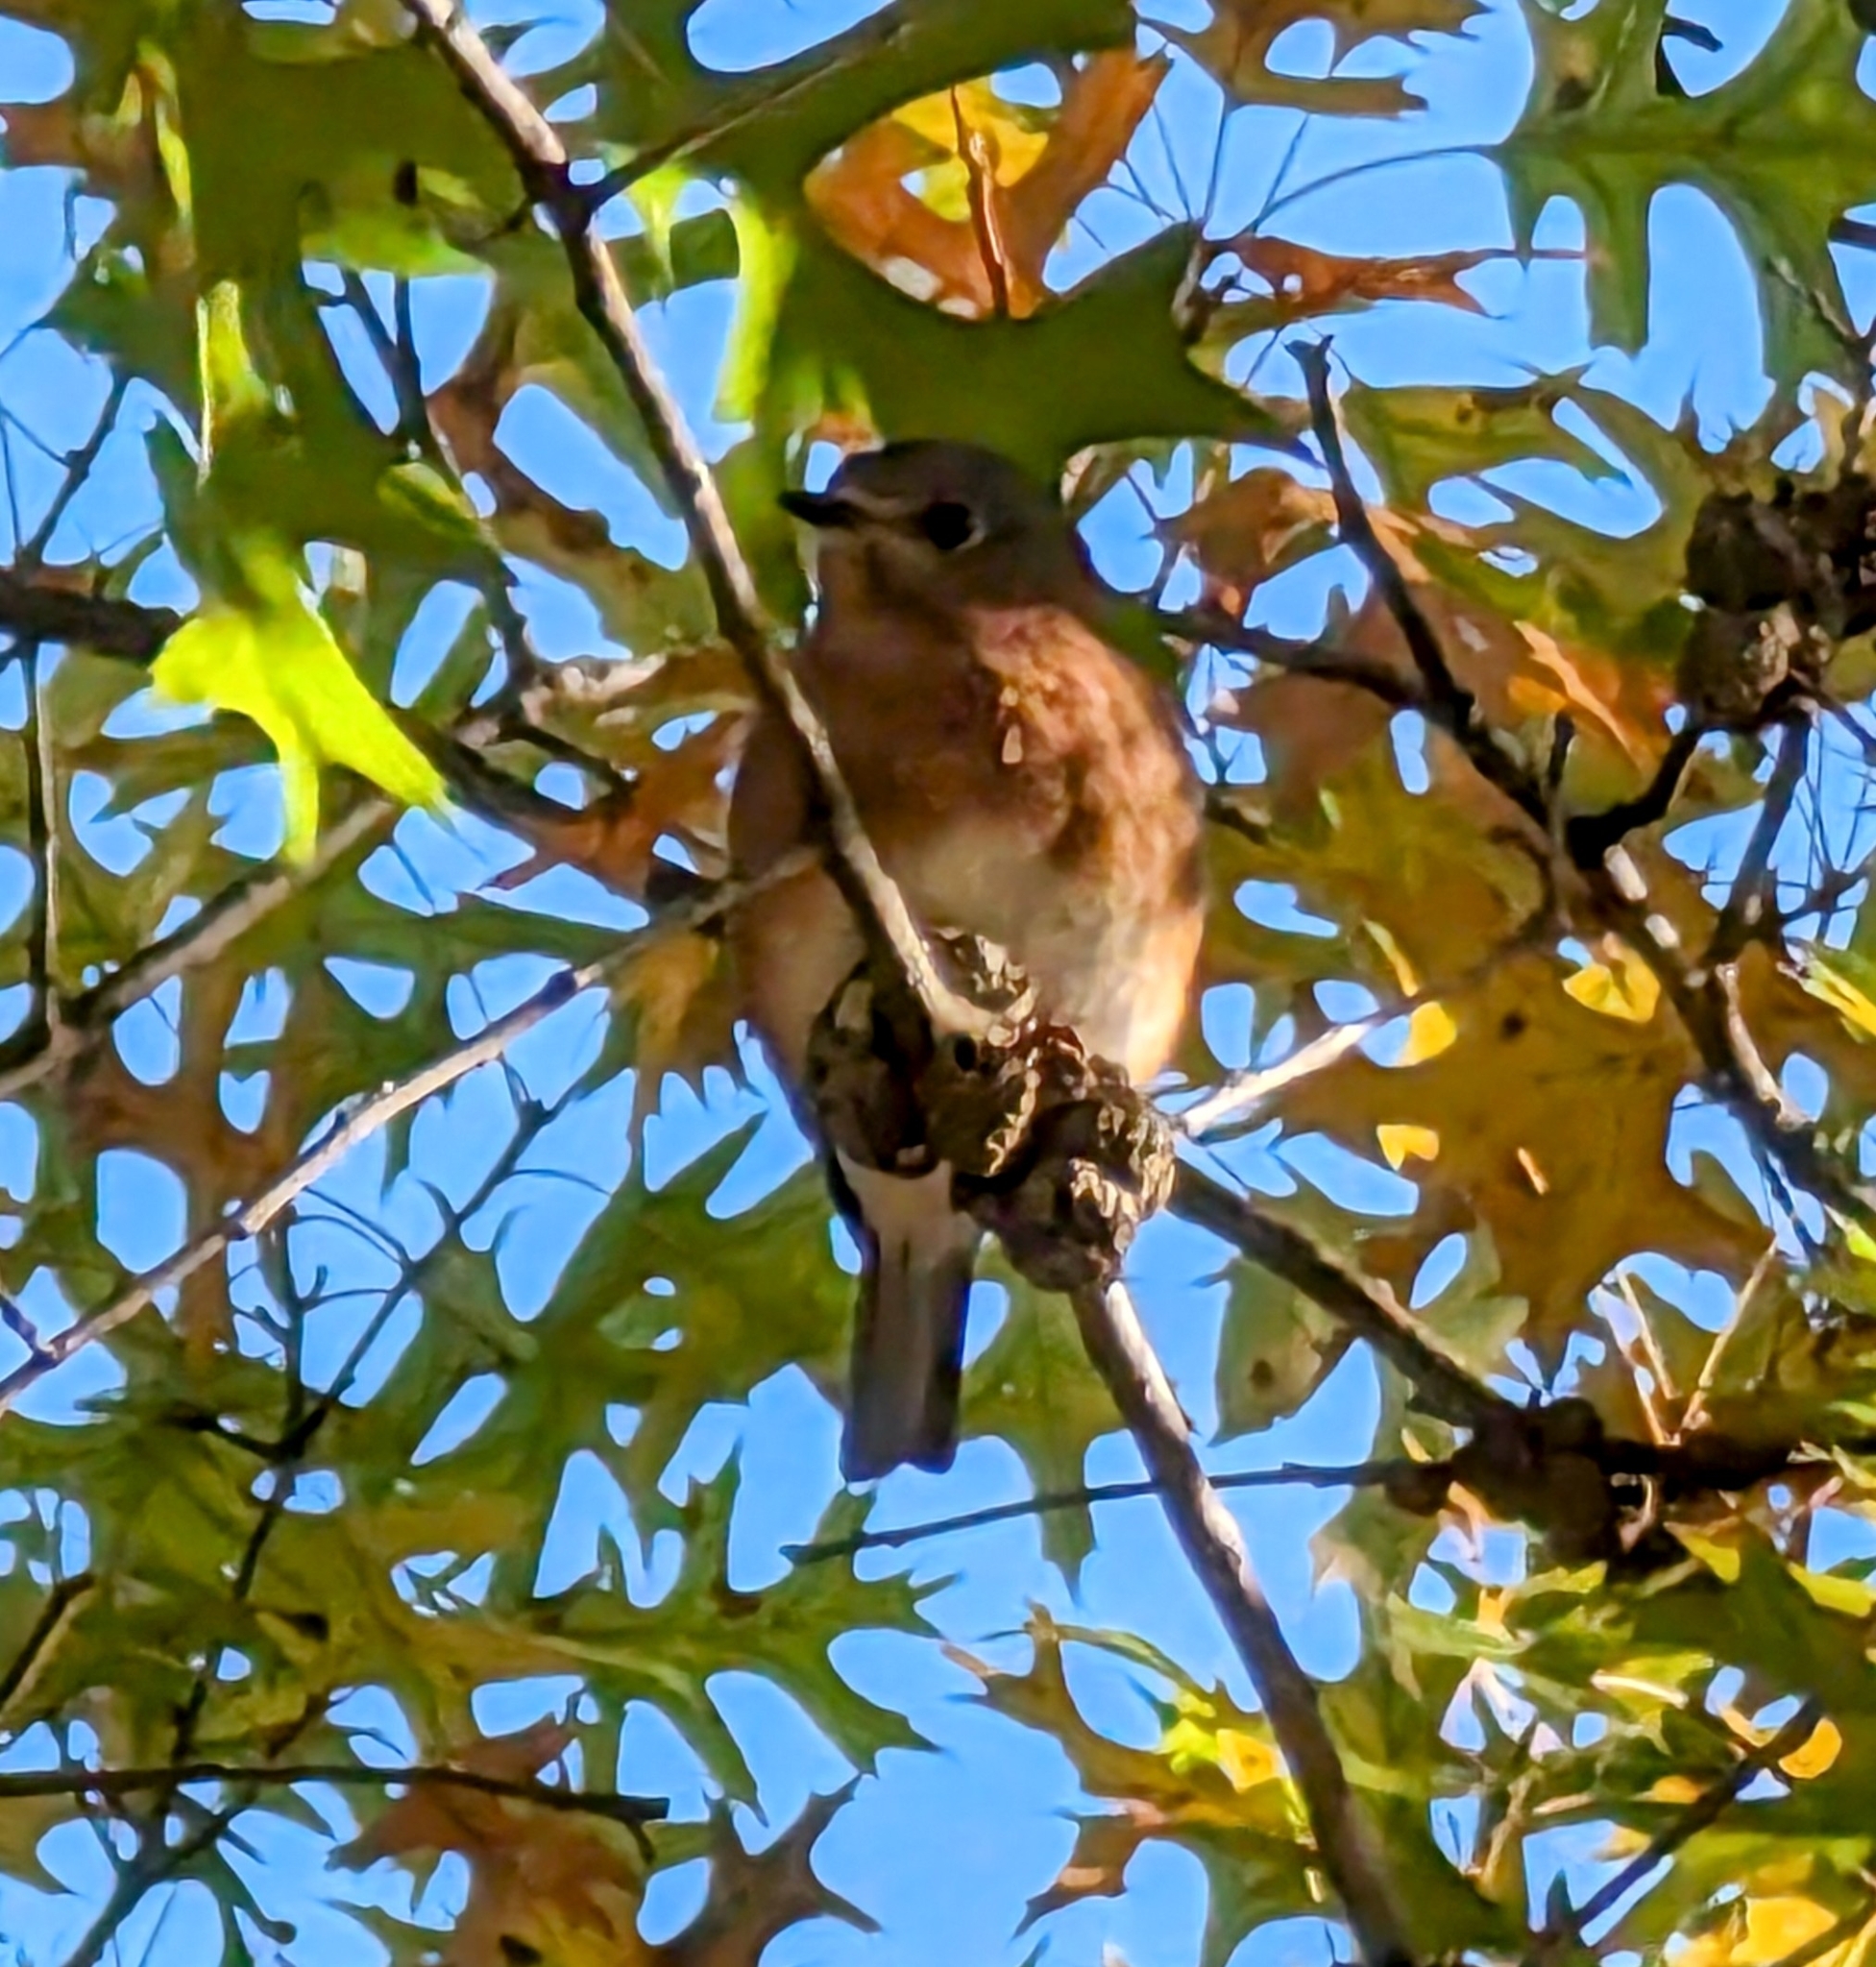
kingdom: Animalia
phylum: Chordata
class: Aves
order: Passeriformes
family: Turdidae
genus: Sialia
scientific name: Sialia sialis
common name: Eastern bluebird
